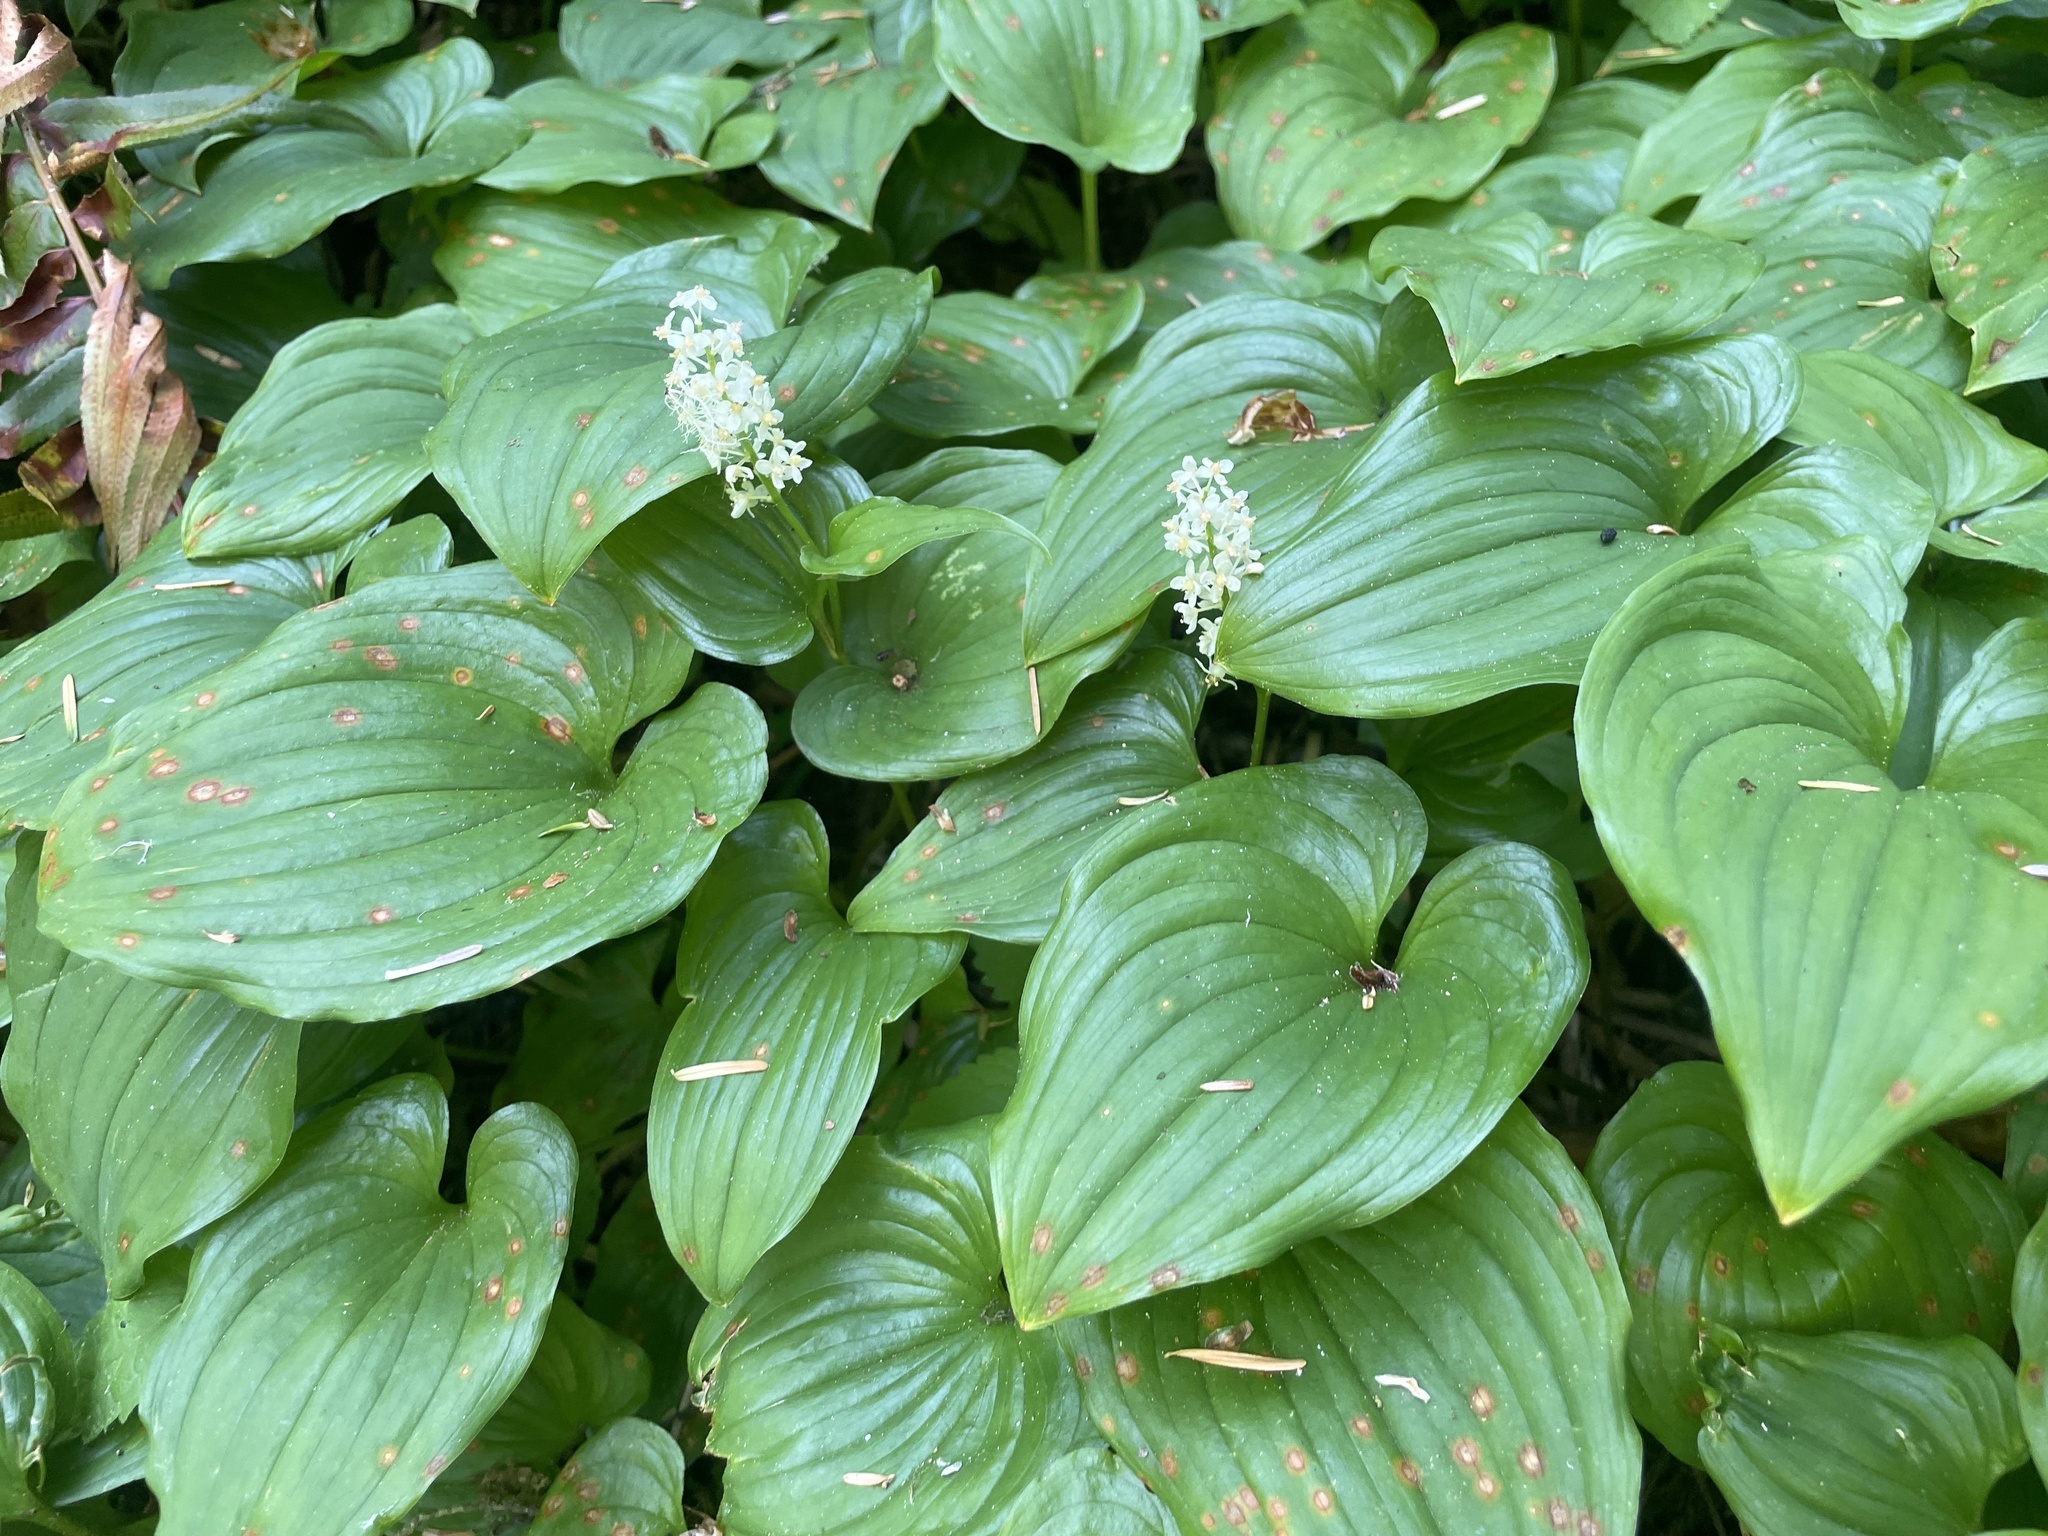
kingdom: Plantae
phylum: Tracheophyta
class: Liliopsida
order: Asparagales
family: Asparagaceae
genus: Maianthemum
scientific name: Maianthemum dilatatum
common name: False lily-of-the-valley
